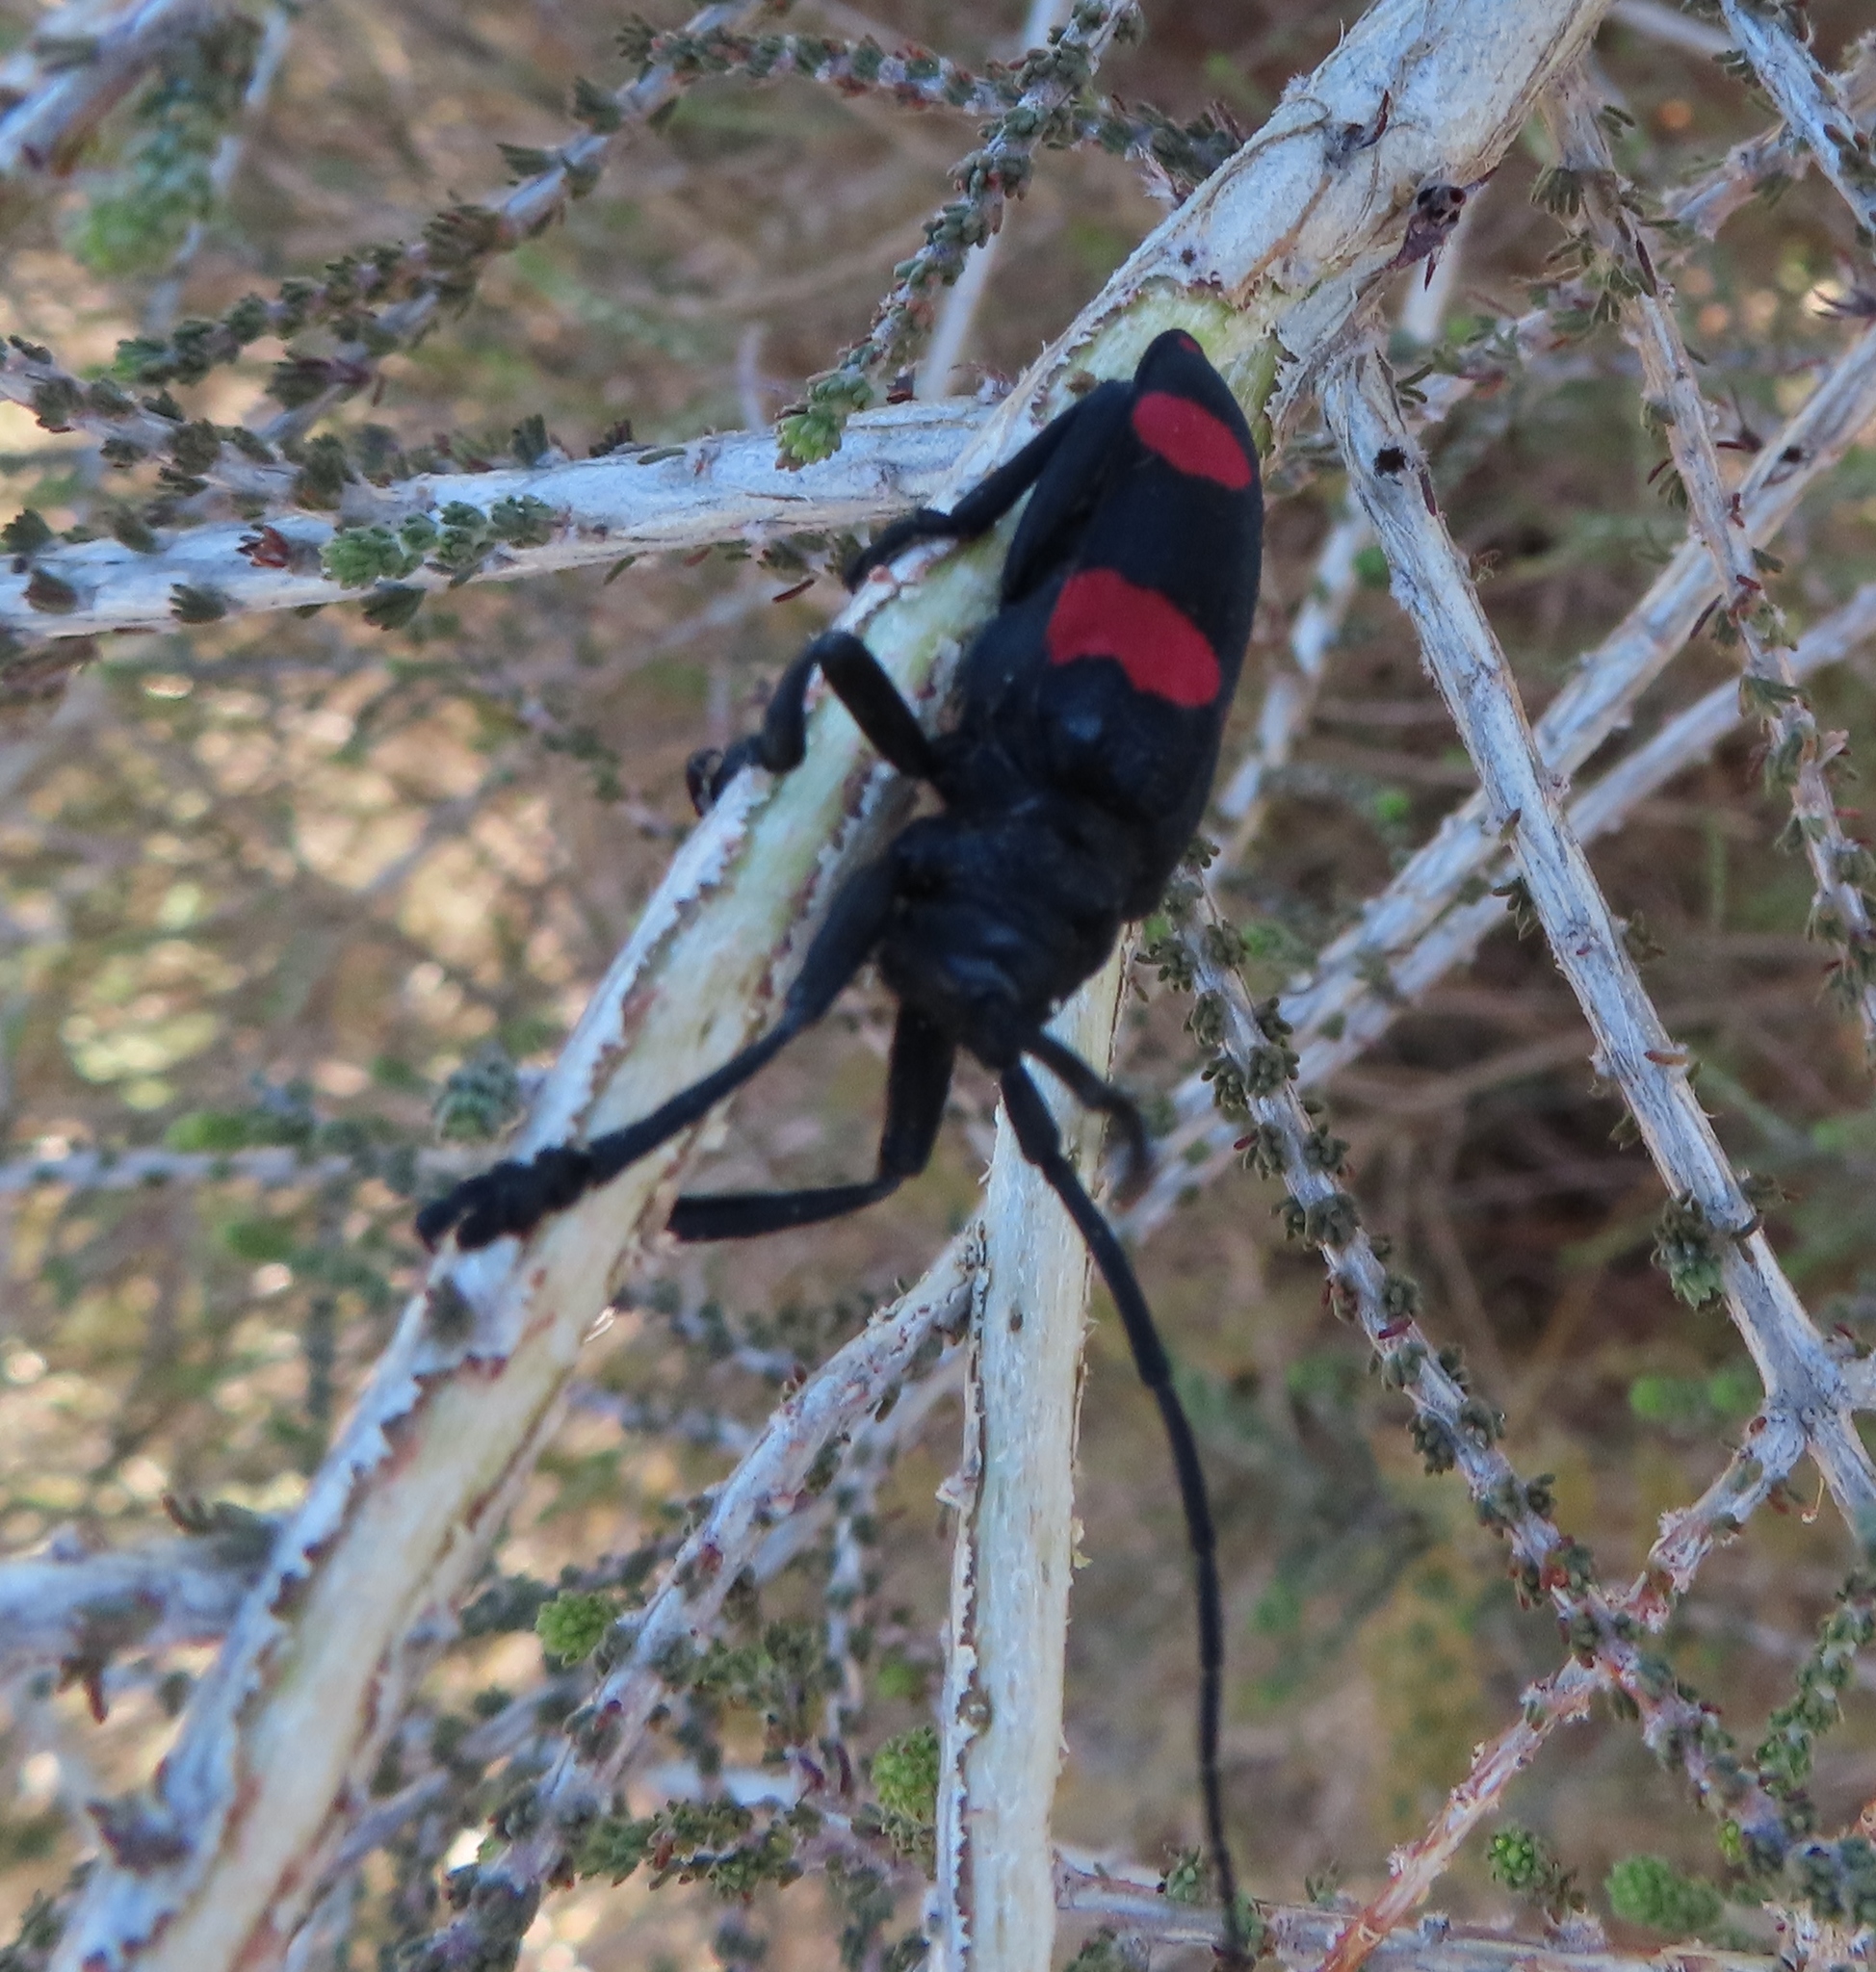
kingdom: Animalia
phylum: Arthropoda
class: Insecta
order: Coleoptera
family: Cerambycidae
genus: Ceroplesis
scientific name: Ceroplesis aethiops
